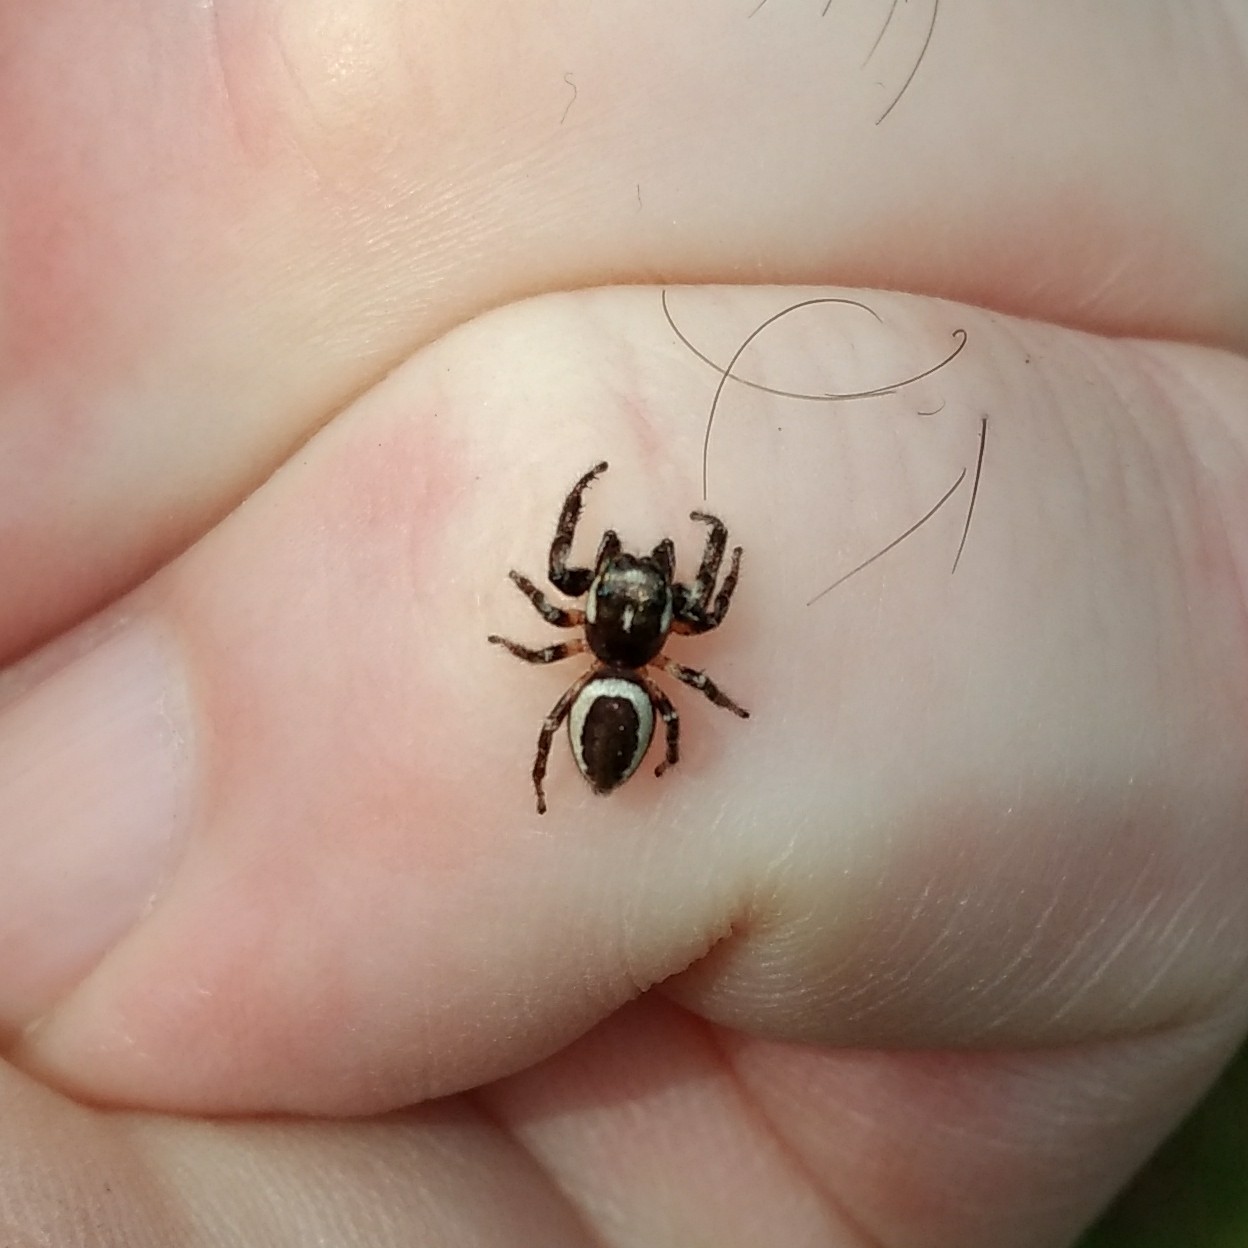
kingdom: Animalia
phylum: Arthropoda
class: Arachnida
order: Araneae
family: Salticidae
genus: Eris
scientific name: Eris militaris
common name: Bronze jumper
